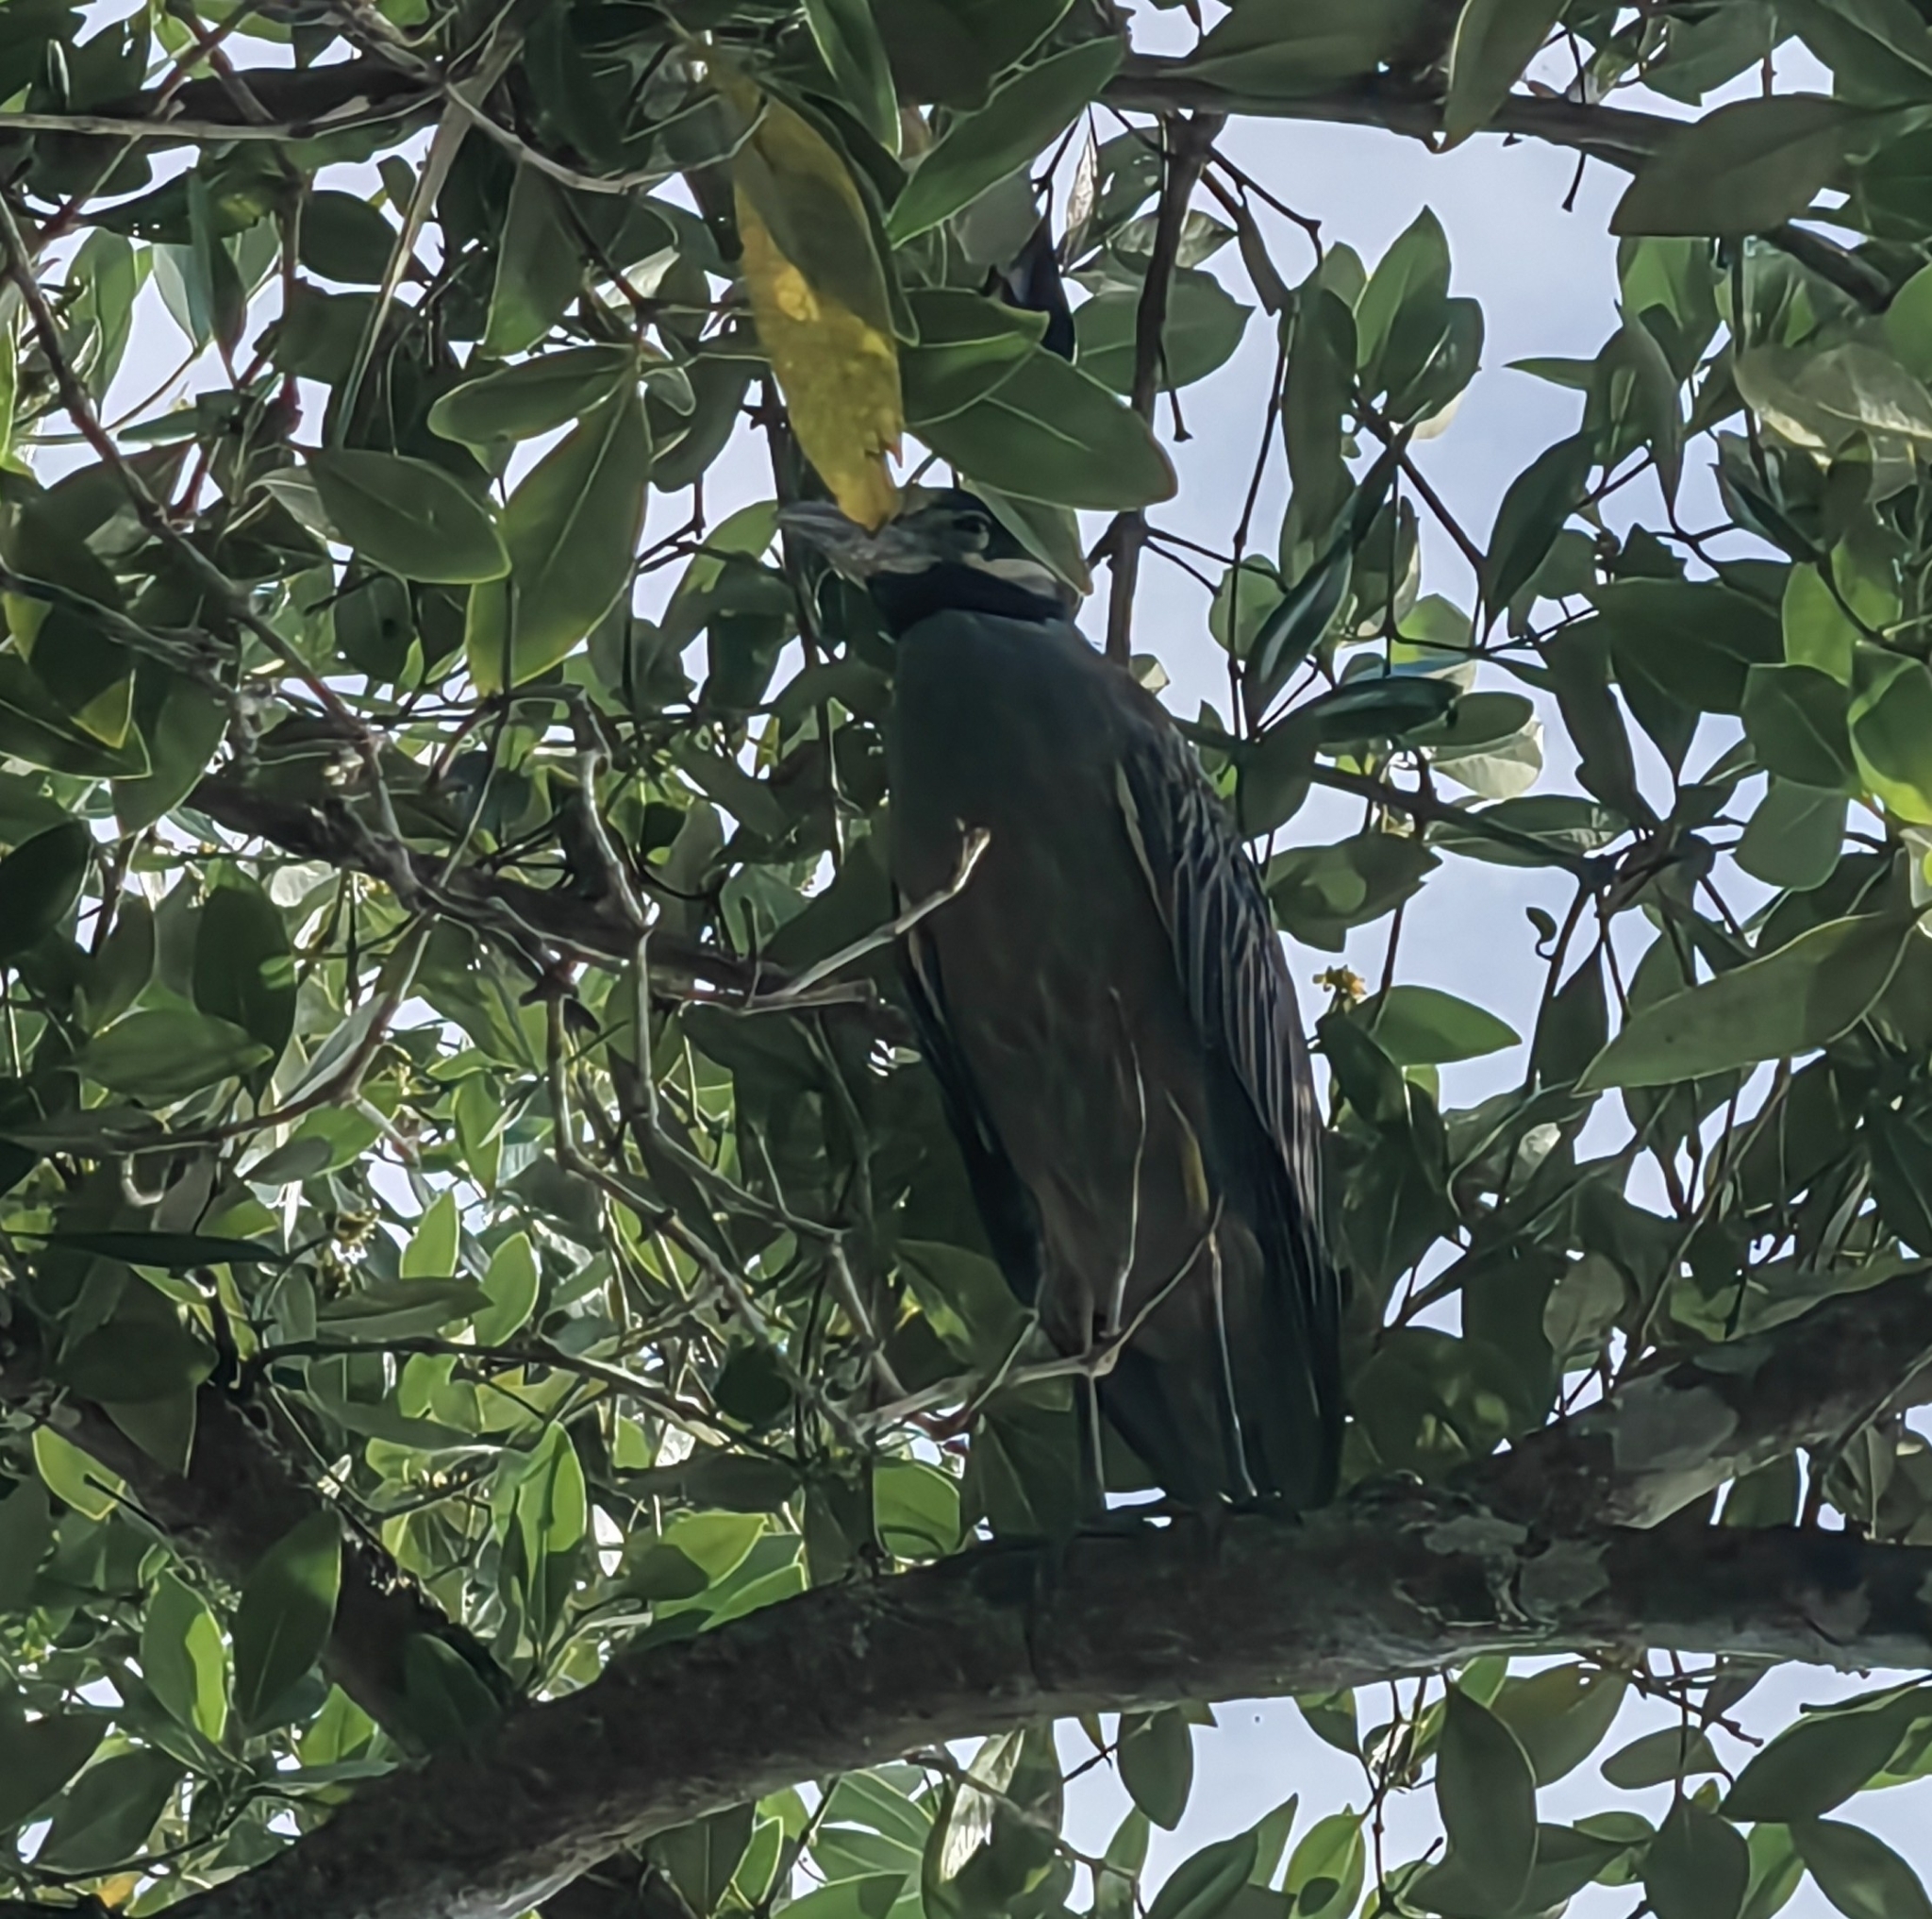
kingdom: Animalia
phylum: Chordata
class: Aves
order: Pelecaniformes
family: Ardeidae
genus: Nyctanassa
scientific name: Nyctanassa violacea
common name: Yellow-crowned night heron
